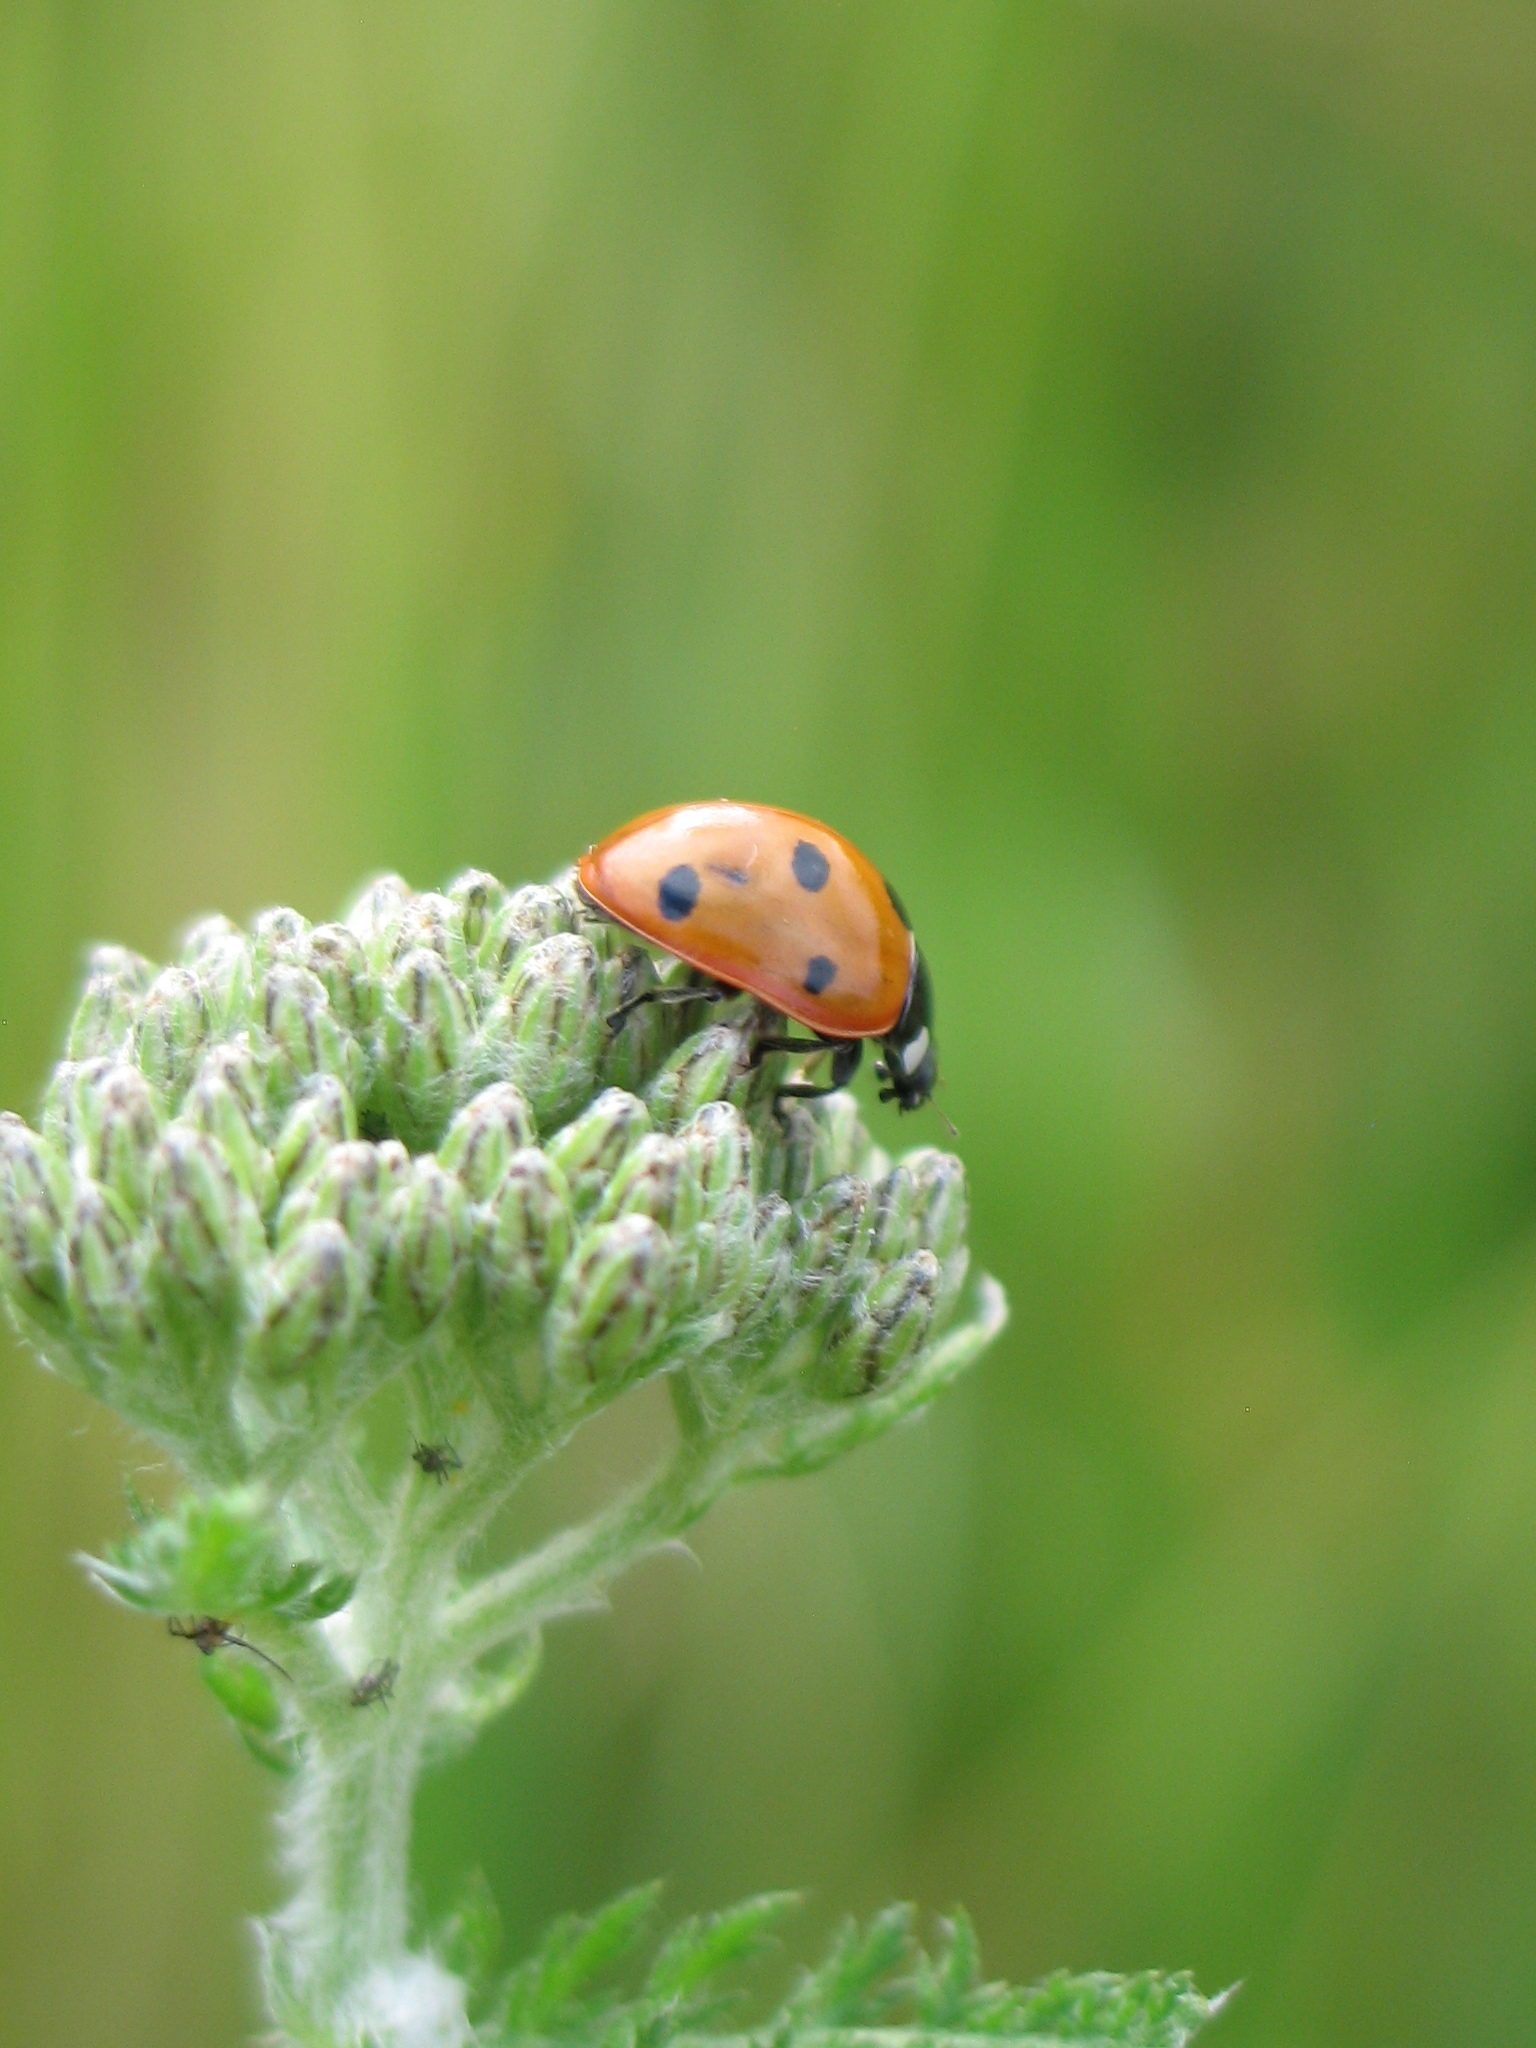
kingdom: Animalia
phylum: Arthropoda
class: Insecta
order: Coleoptera
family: Coccinellidae
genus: Coccinella
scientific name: Coccinella septempunctata
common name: Sevenspotted lady beetle
